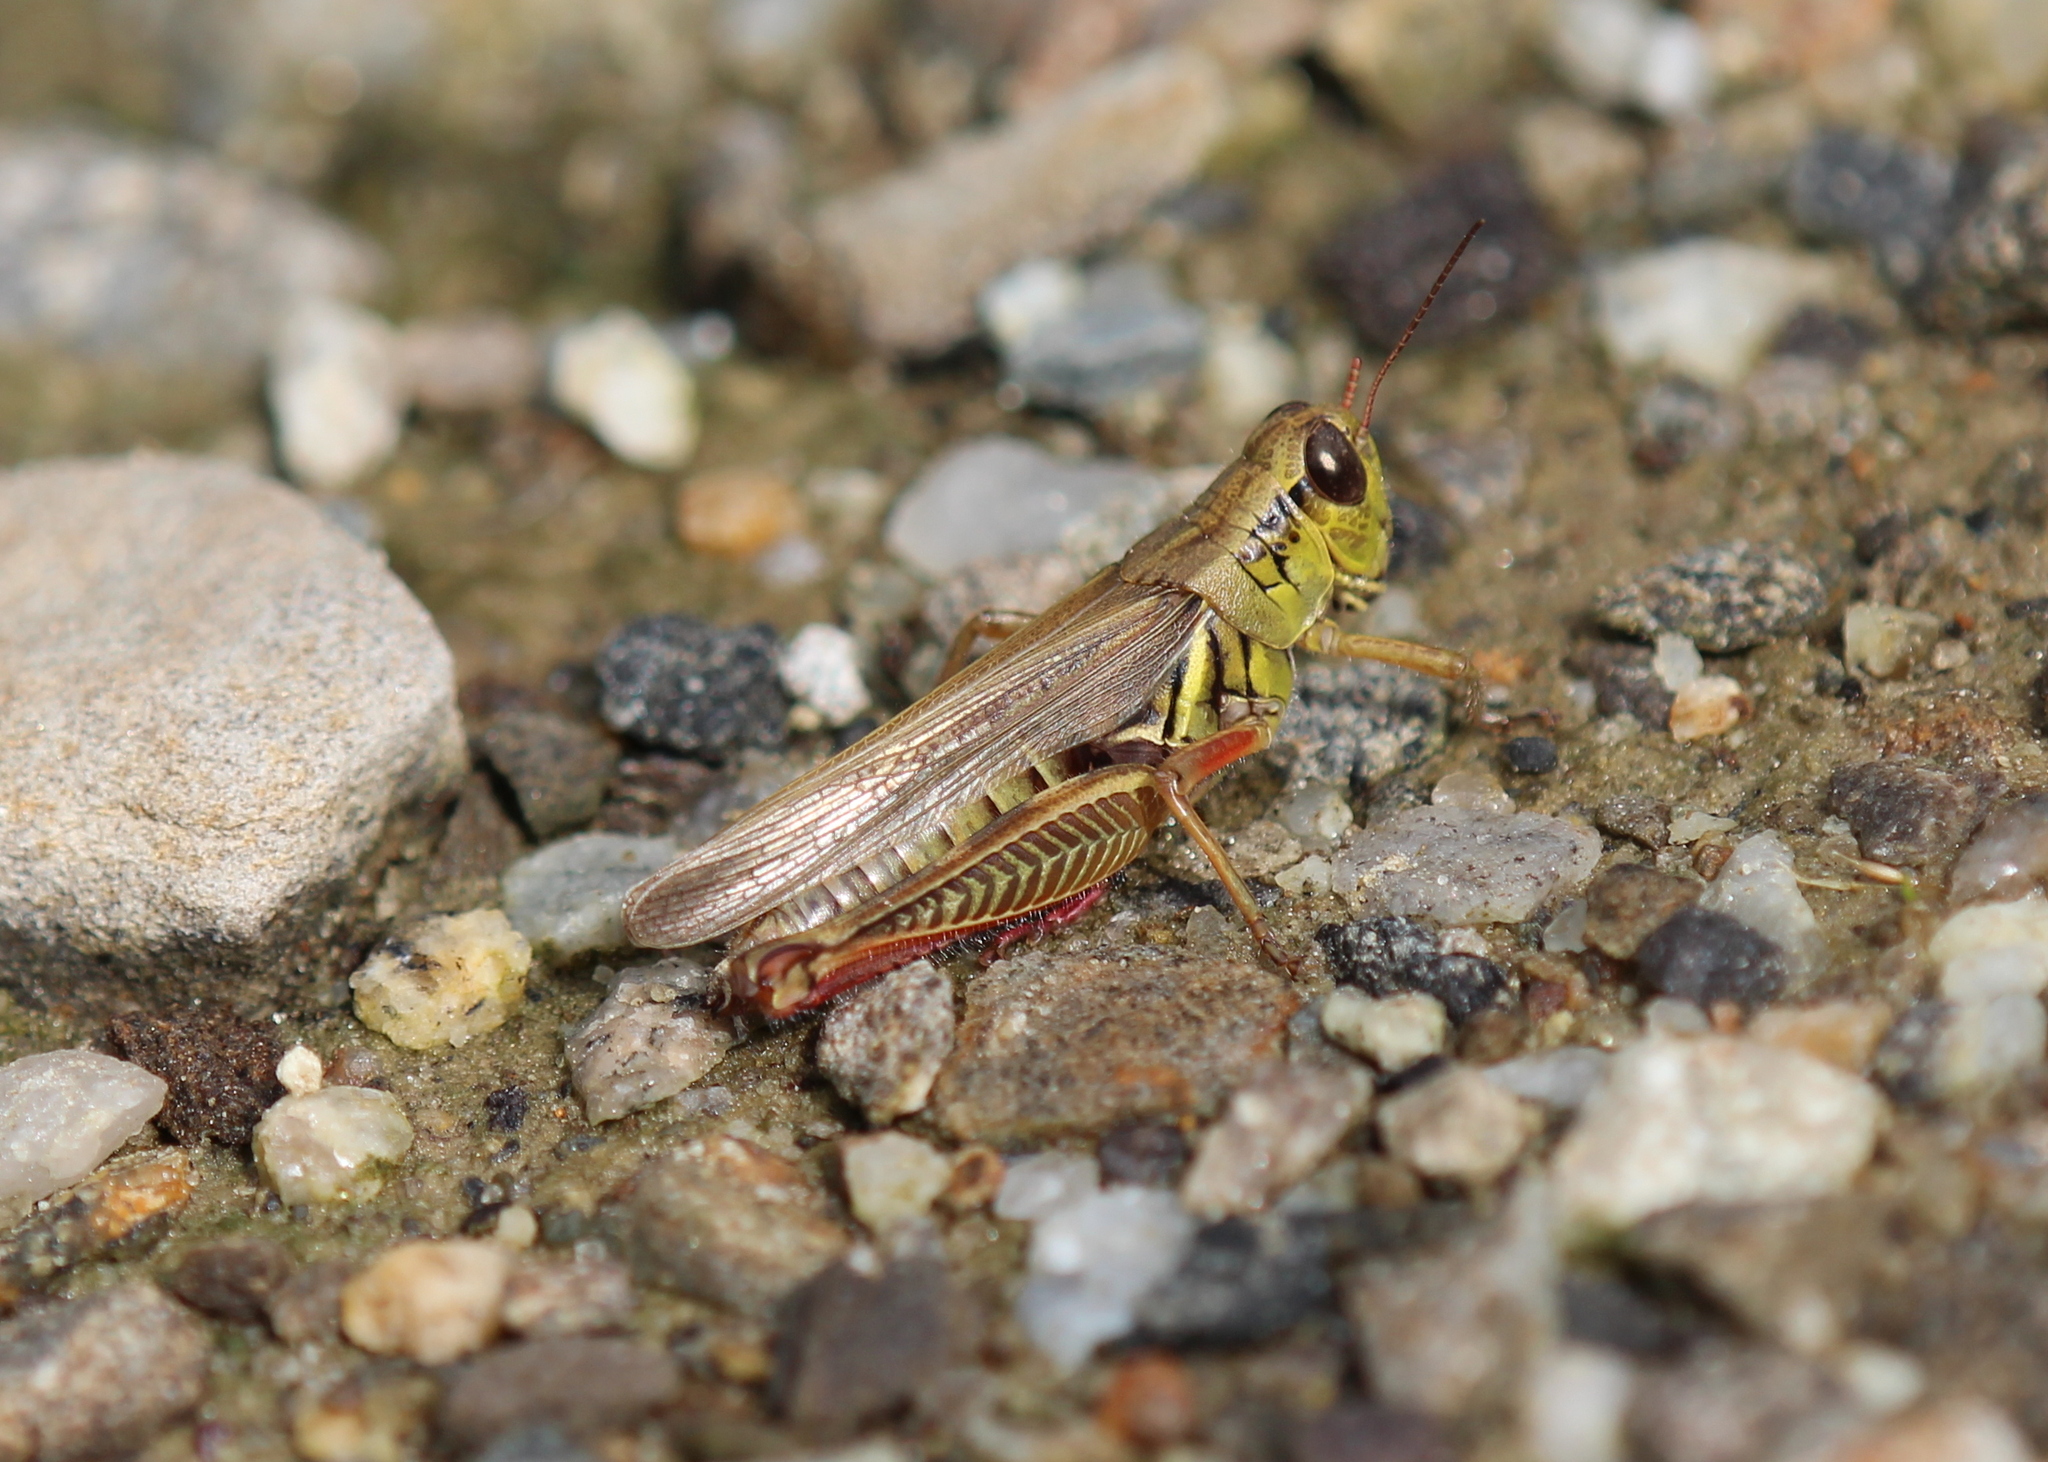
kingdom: Animalia
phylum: Arthropoda
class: Insecta
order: Orthoptera
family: Acrididae
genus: Melanoplus
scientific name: Melanoplus femurrubrum
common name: Red-legged grasshopper
